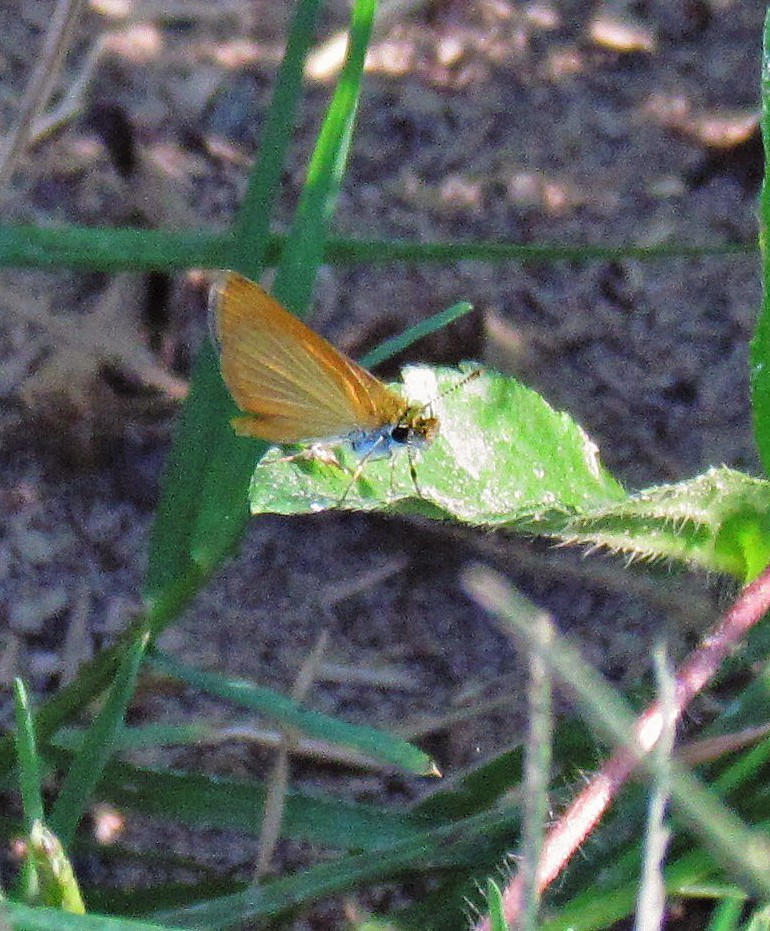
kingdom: Animalia
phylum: Arthropoda
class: Insecta
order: Lepidoptera
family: Hesperiidae
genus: Ancyloxypha
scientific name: Ancyloxypha nitedula
